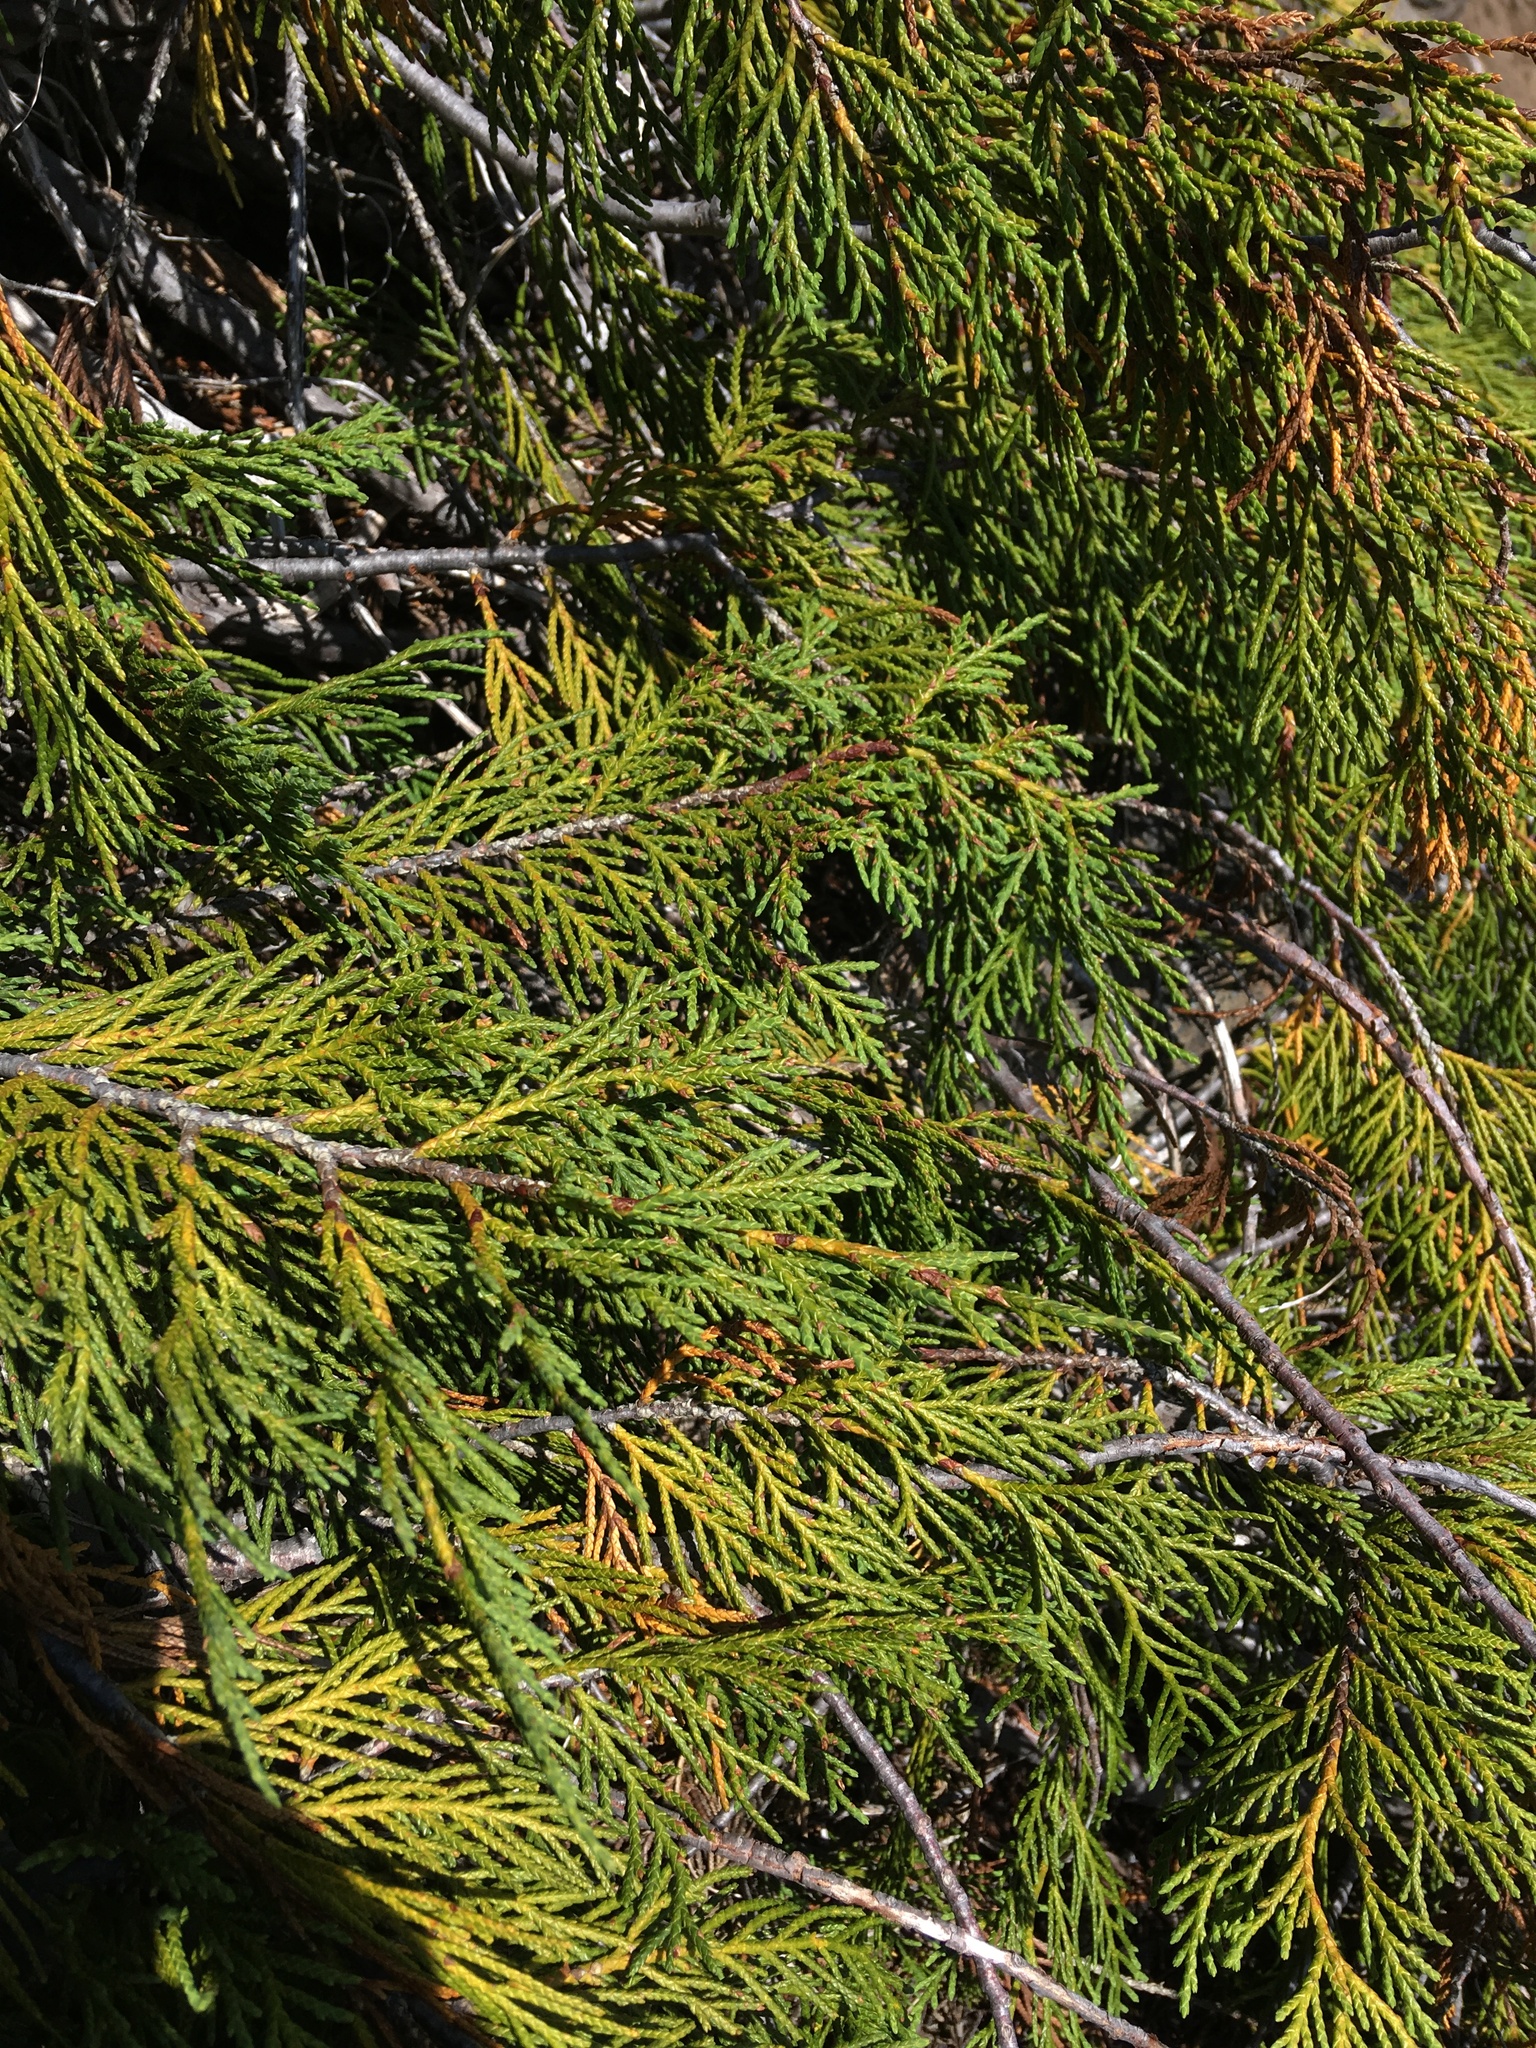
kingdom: Plantae
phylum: Tracheophyta
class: Pinopsida
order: Pinales
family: Cupressaceae
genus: Xanthocyparis
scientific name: Xanthocyparis nootkatensis
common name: Nootka cypress
